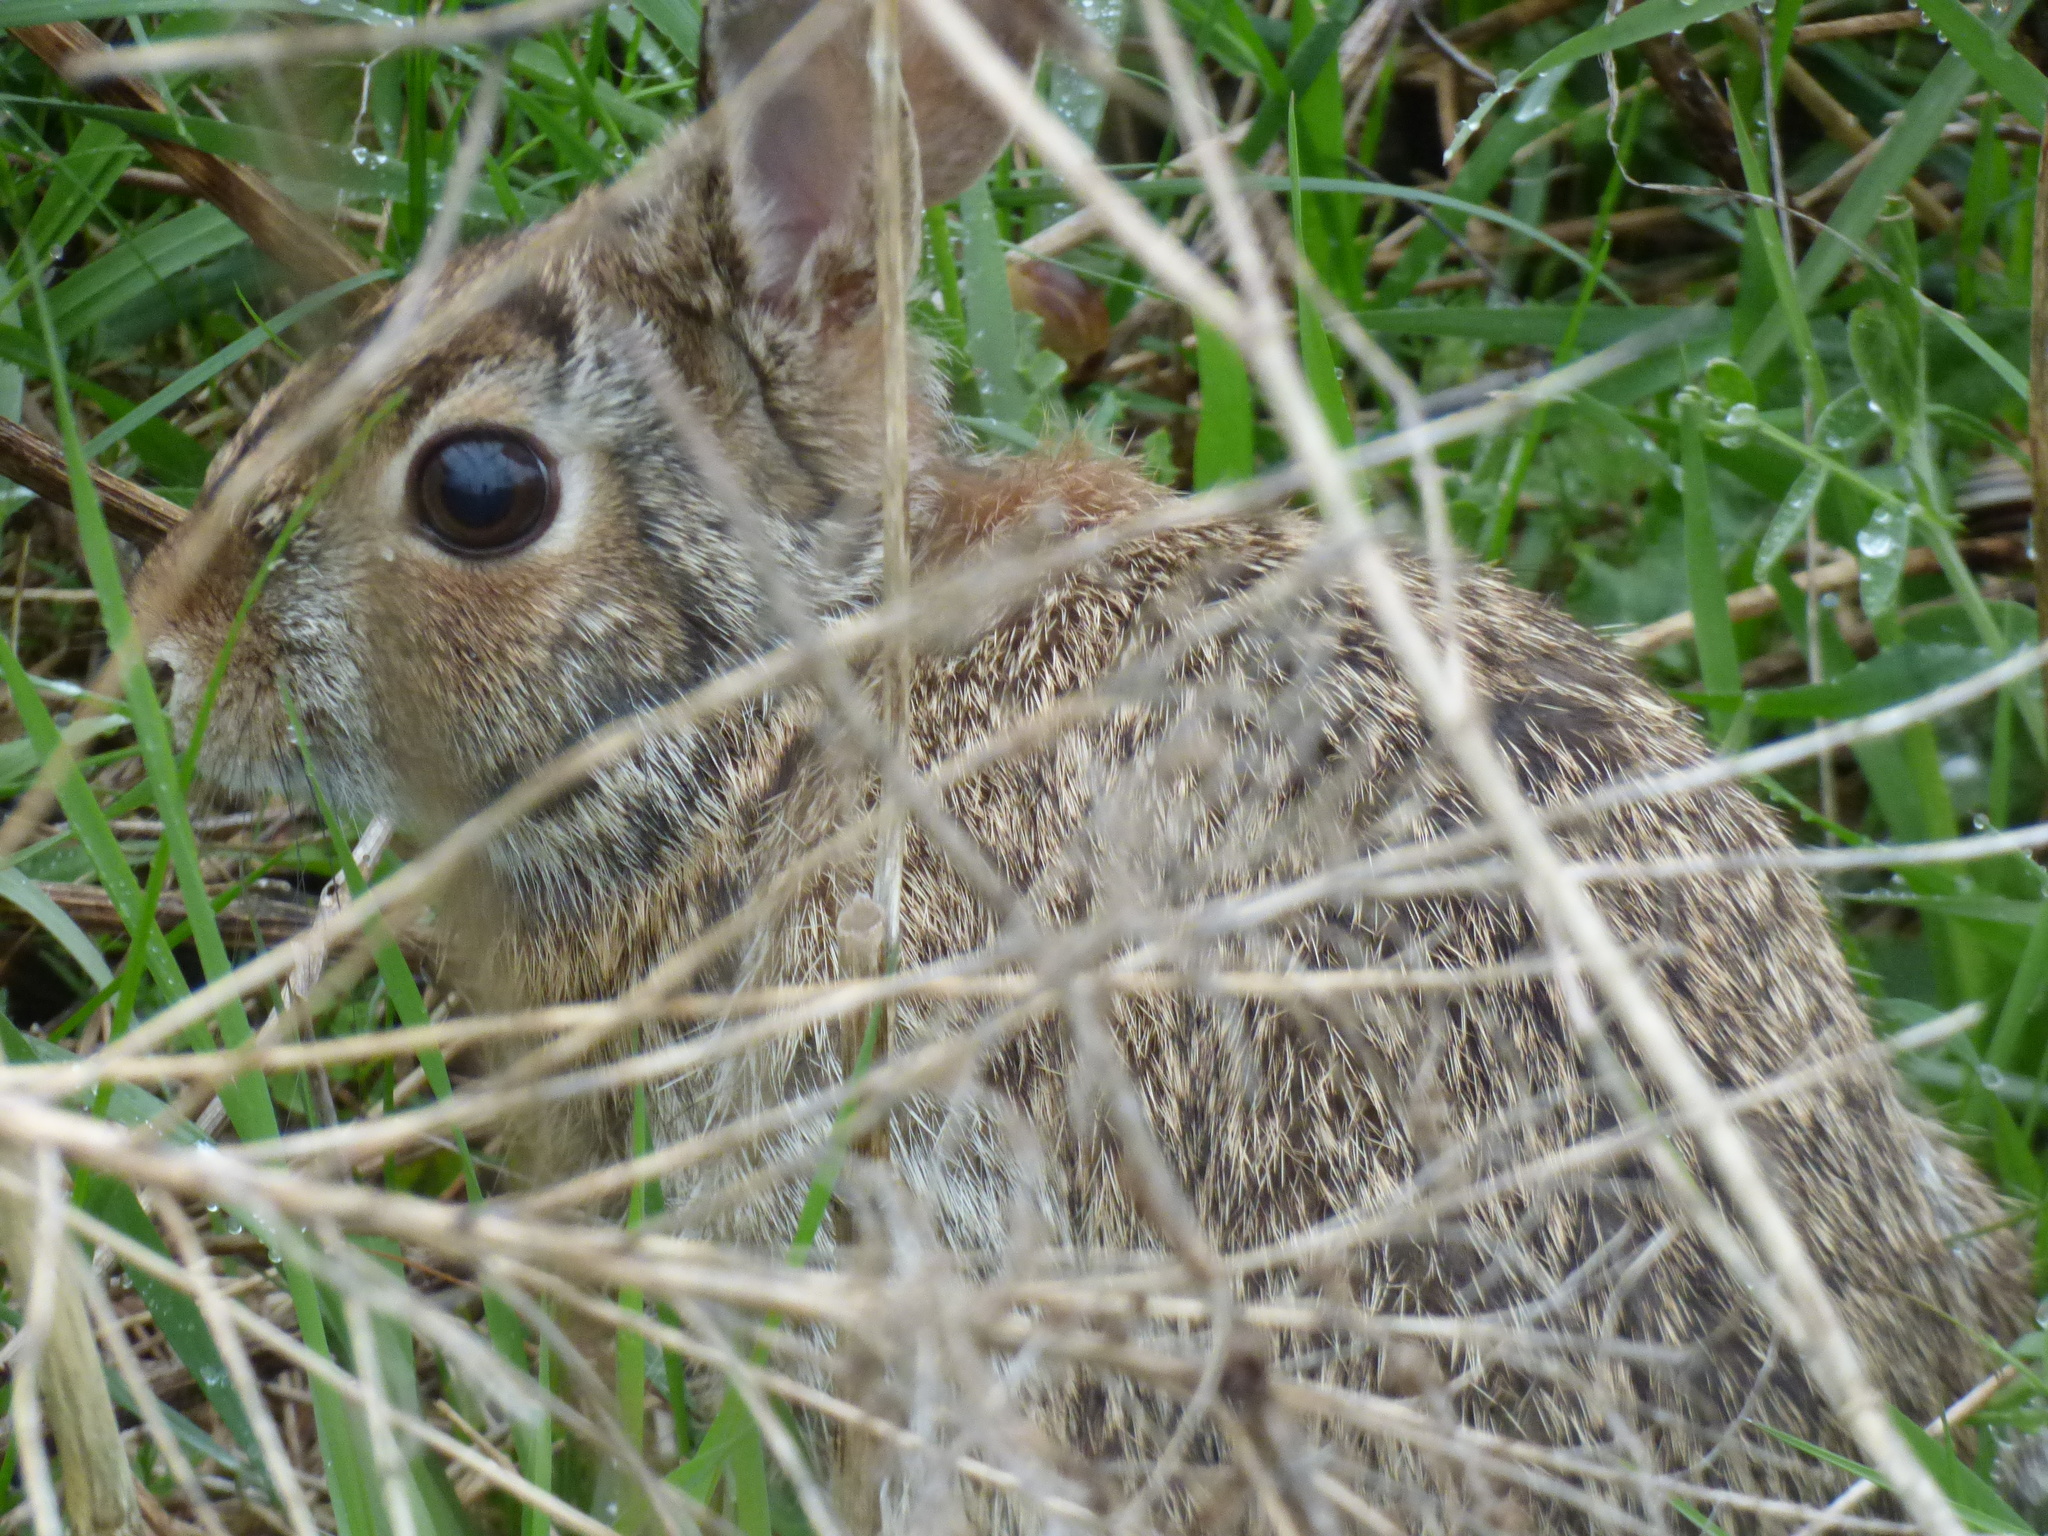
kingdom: Animalia
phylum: Chordata
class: Mammalia
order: Lagomorpha
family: Leporidae
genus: Sylvilagus
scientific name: Sylvilagus floridanus
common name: Eastern cottontail
